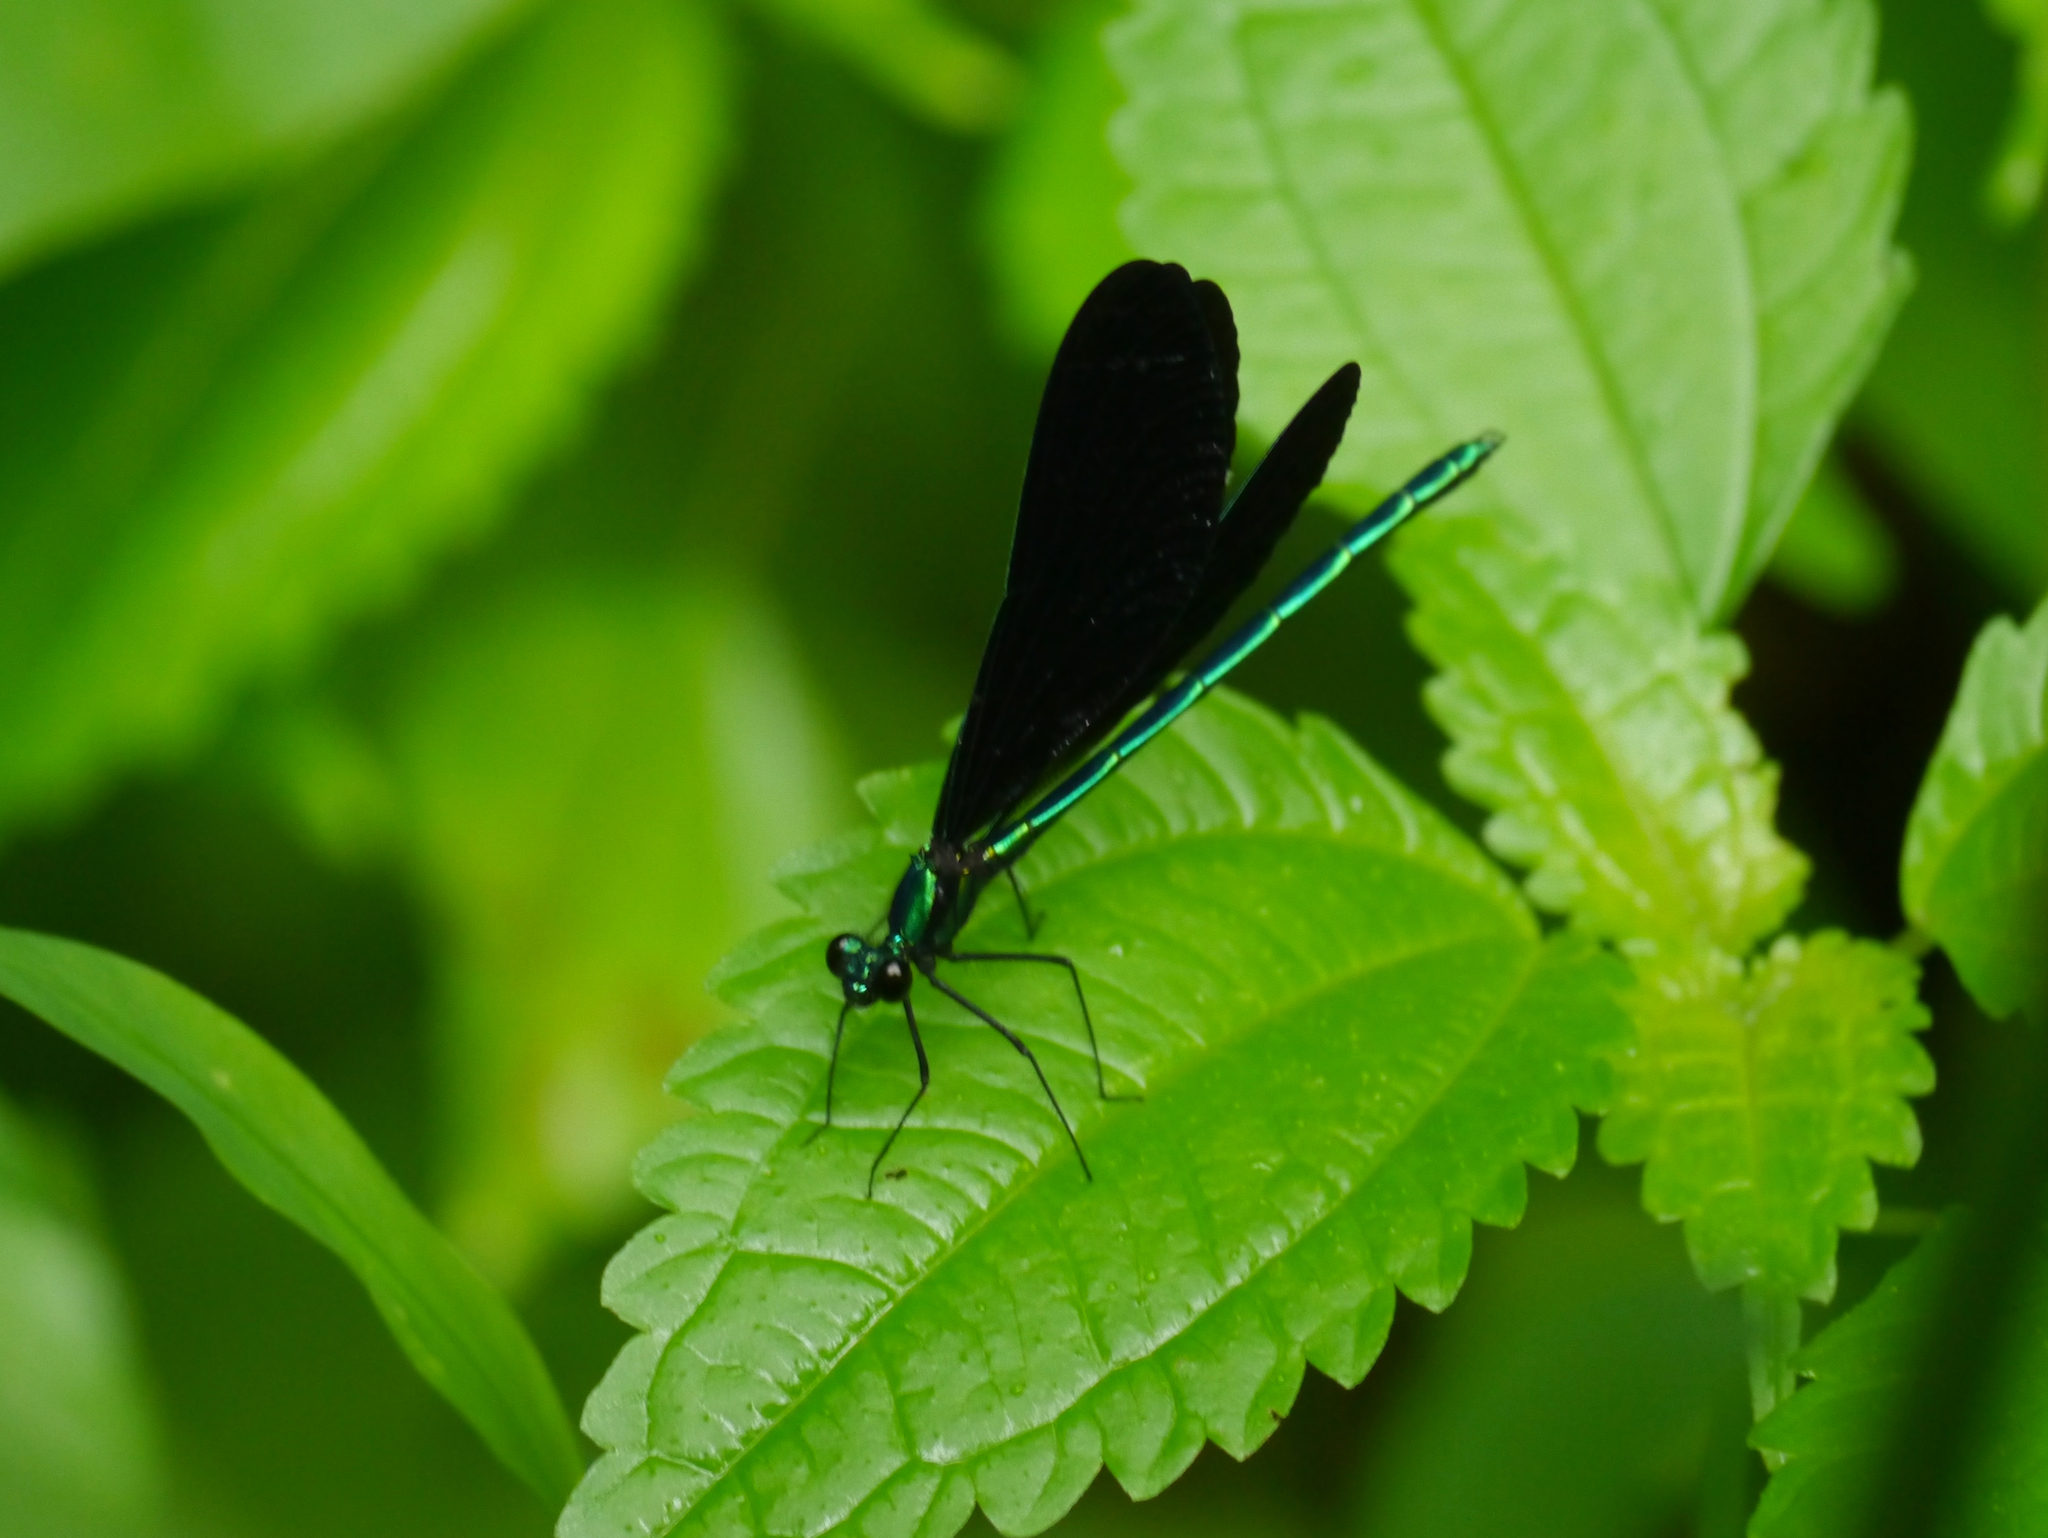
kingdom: Animalia
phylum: Arthropoda
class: Insecta
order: Odonata
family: Calopterygidae
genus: Calopteryx
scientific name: Calopteryx maculata
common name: Ebony jewelwing
